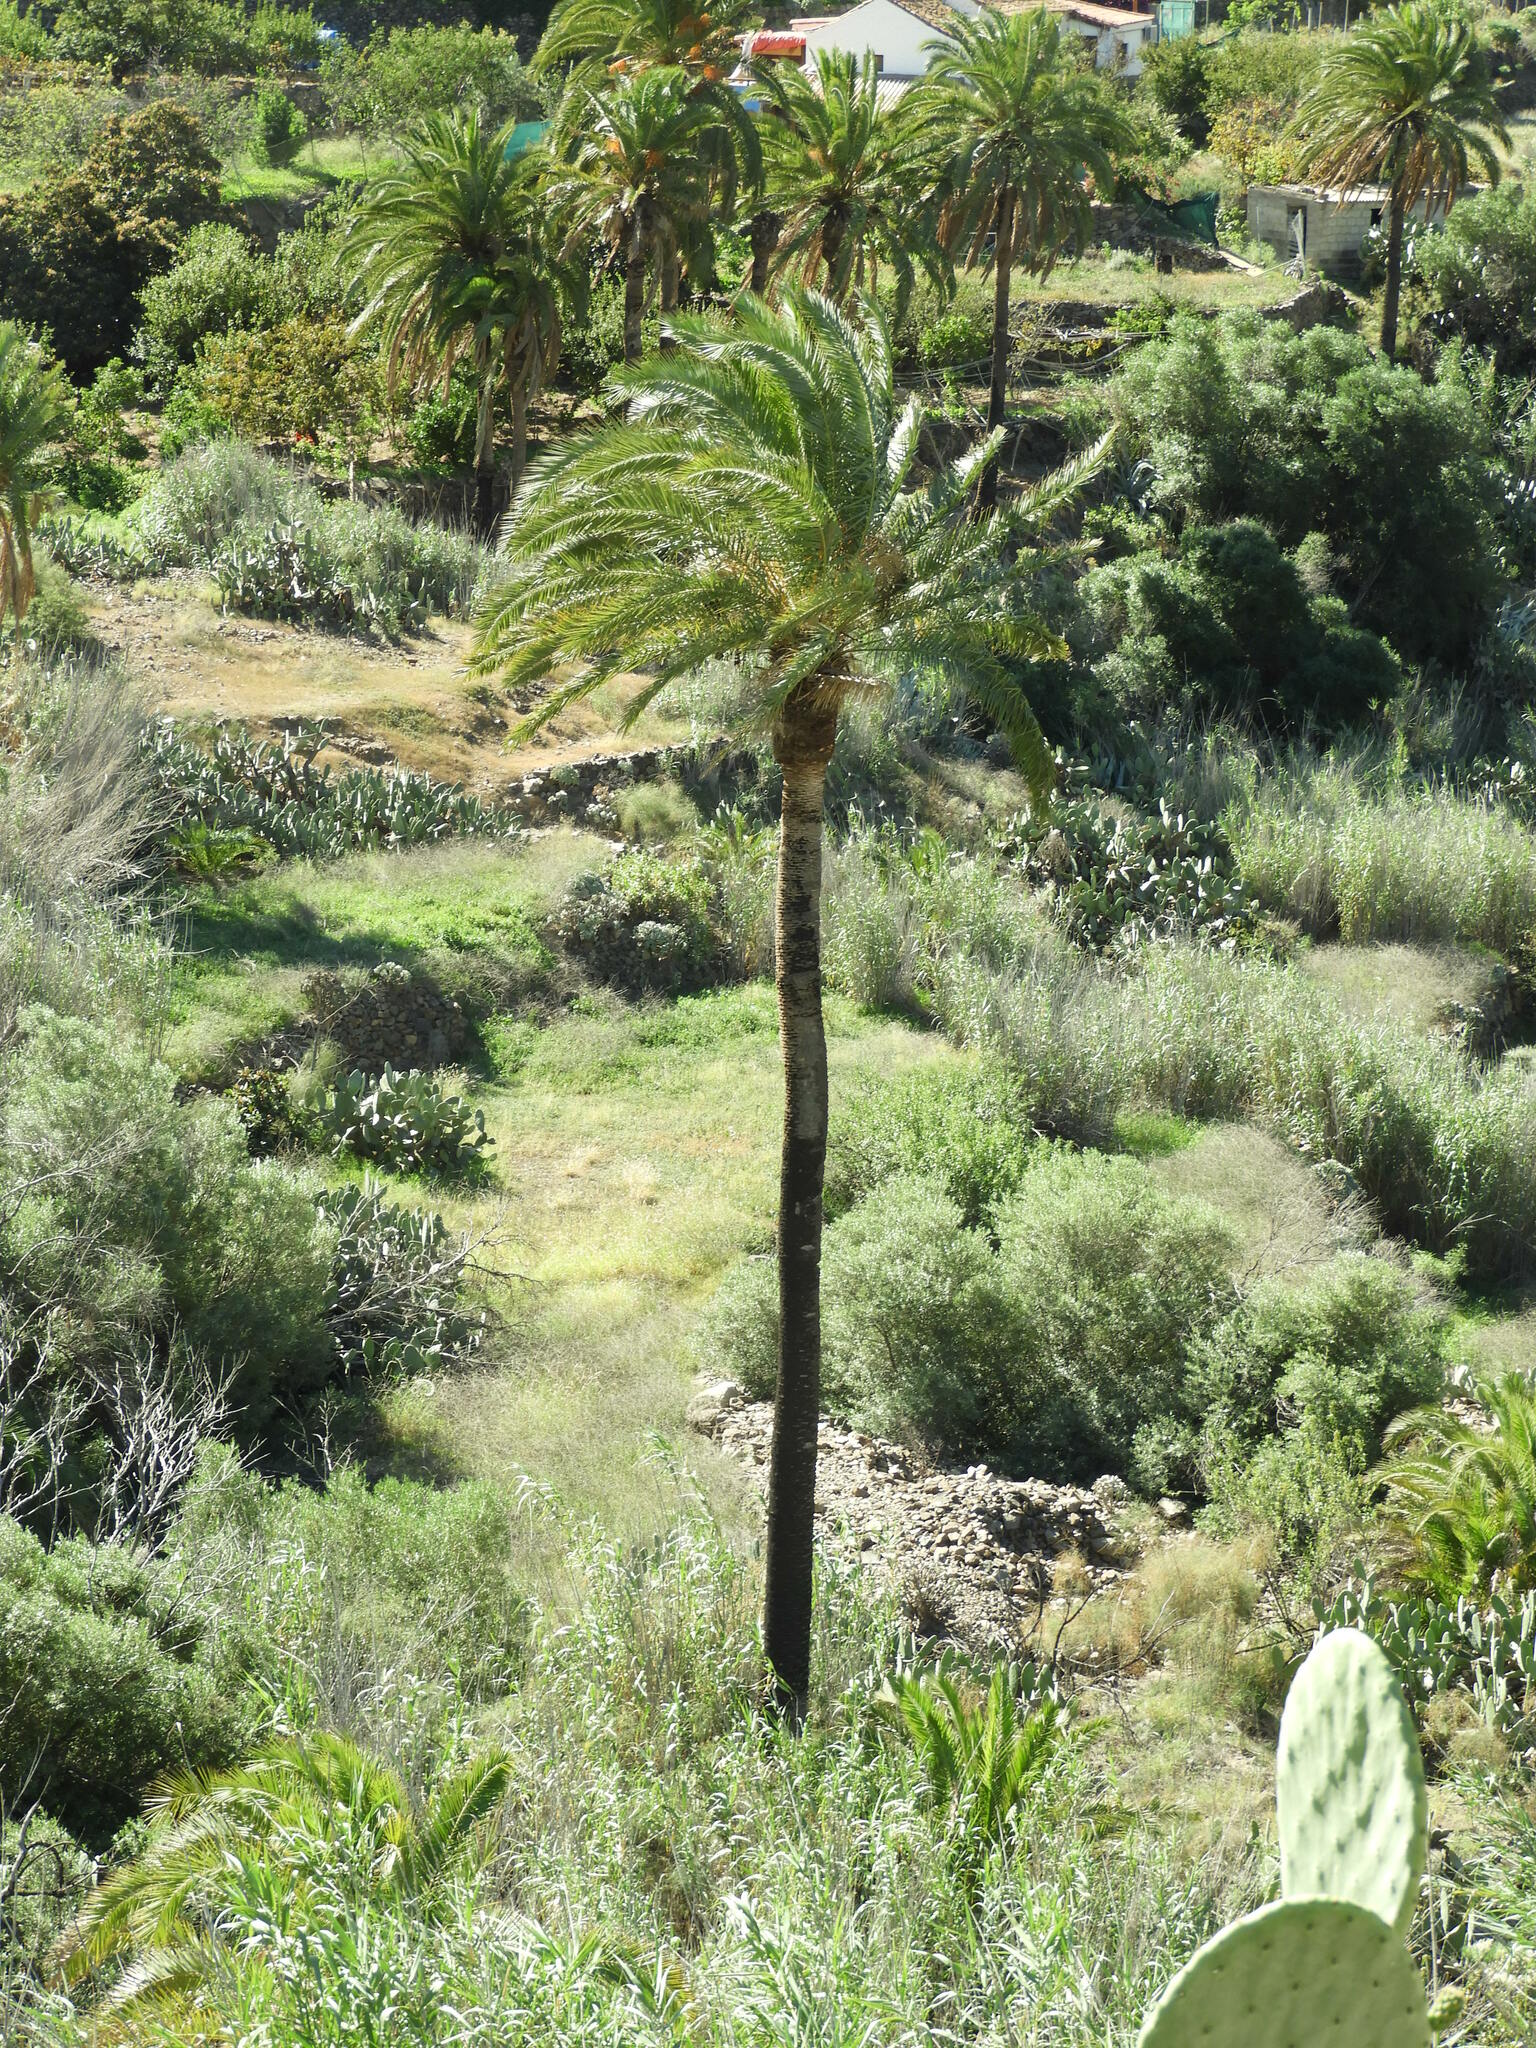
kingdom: Plantae
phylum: Tracheophyta
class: Liliopsida
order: Arecales
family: Arecaceae
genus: Phoenix
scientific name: Phoenix canariensis
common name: Canary island date palm
